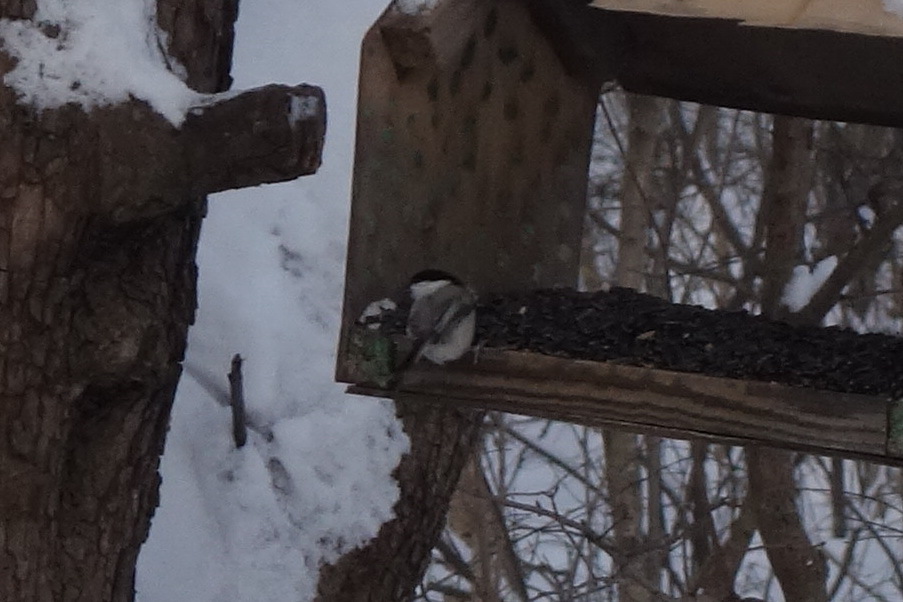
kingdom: Animalia
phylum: Chordata
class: Aves
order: Passeriformes
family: Paridae
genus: Poecile
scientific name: Poecile montanus
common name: Willow tit
